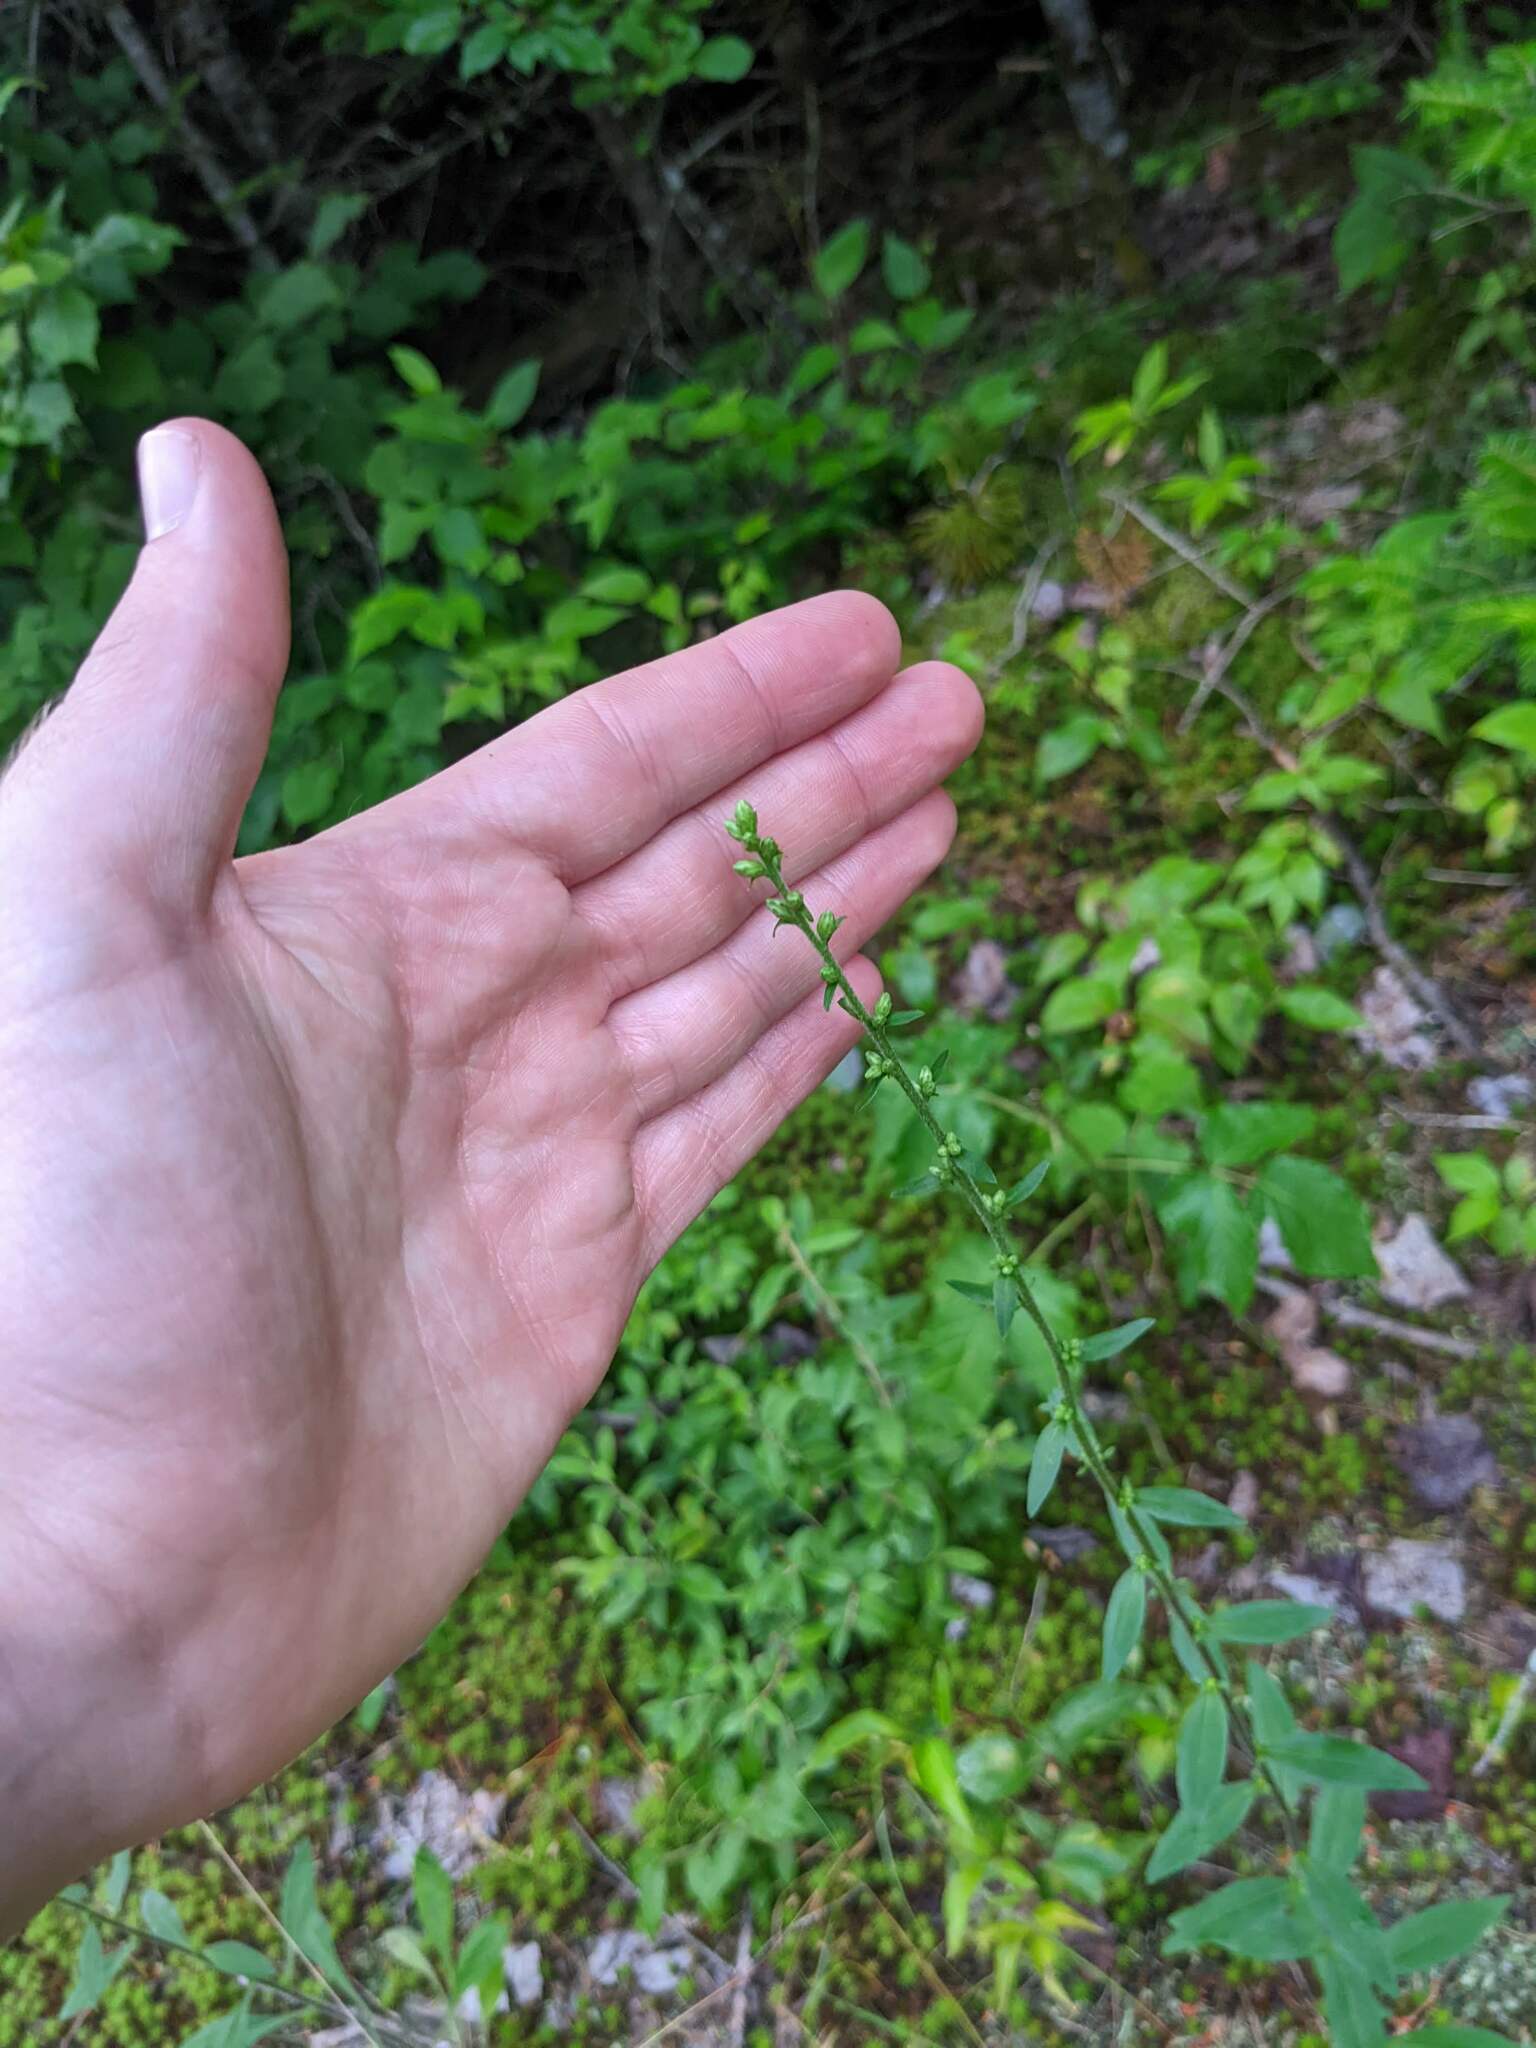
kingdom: Plantae
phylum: Tracheophyta
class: Magnoliopsida
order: Asterales
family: Asteraceae
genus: Solidago
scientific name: Solidago bicolor
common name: Silverrod
